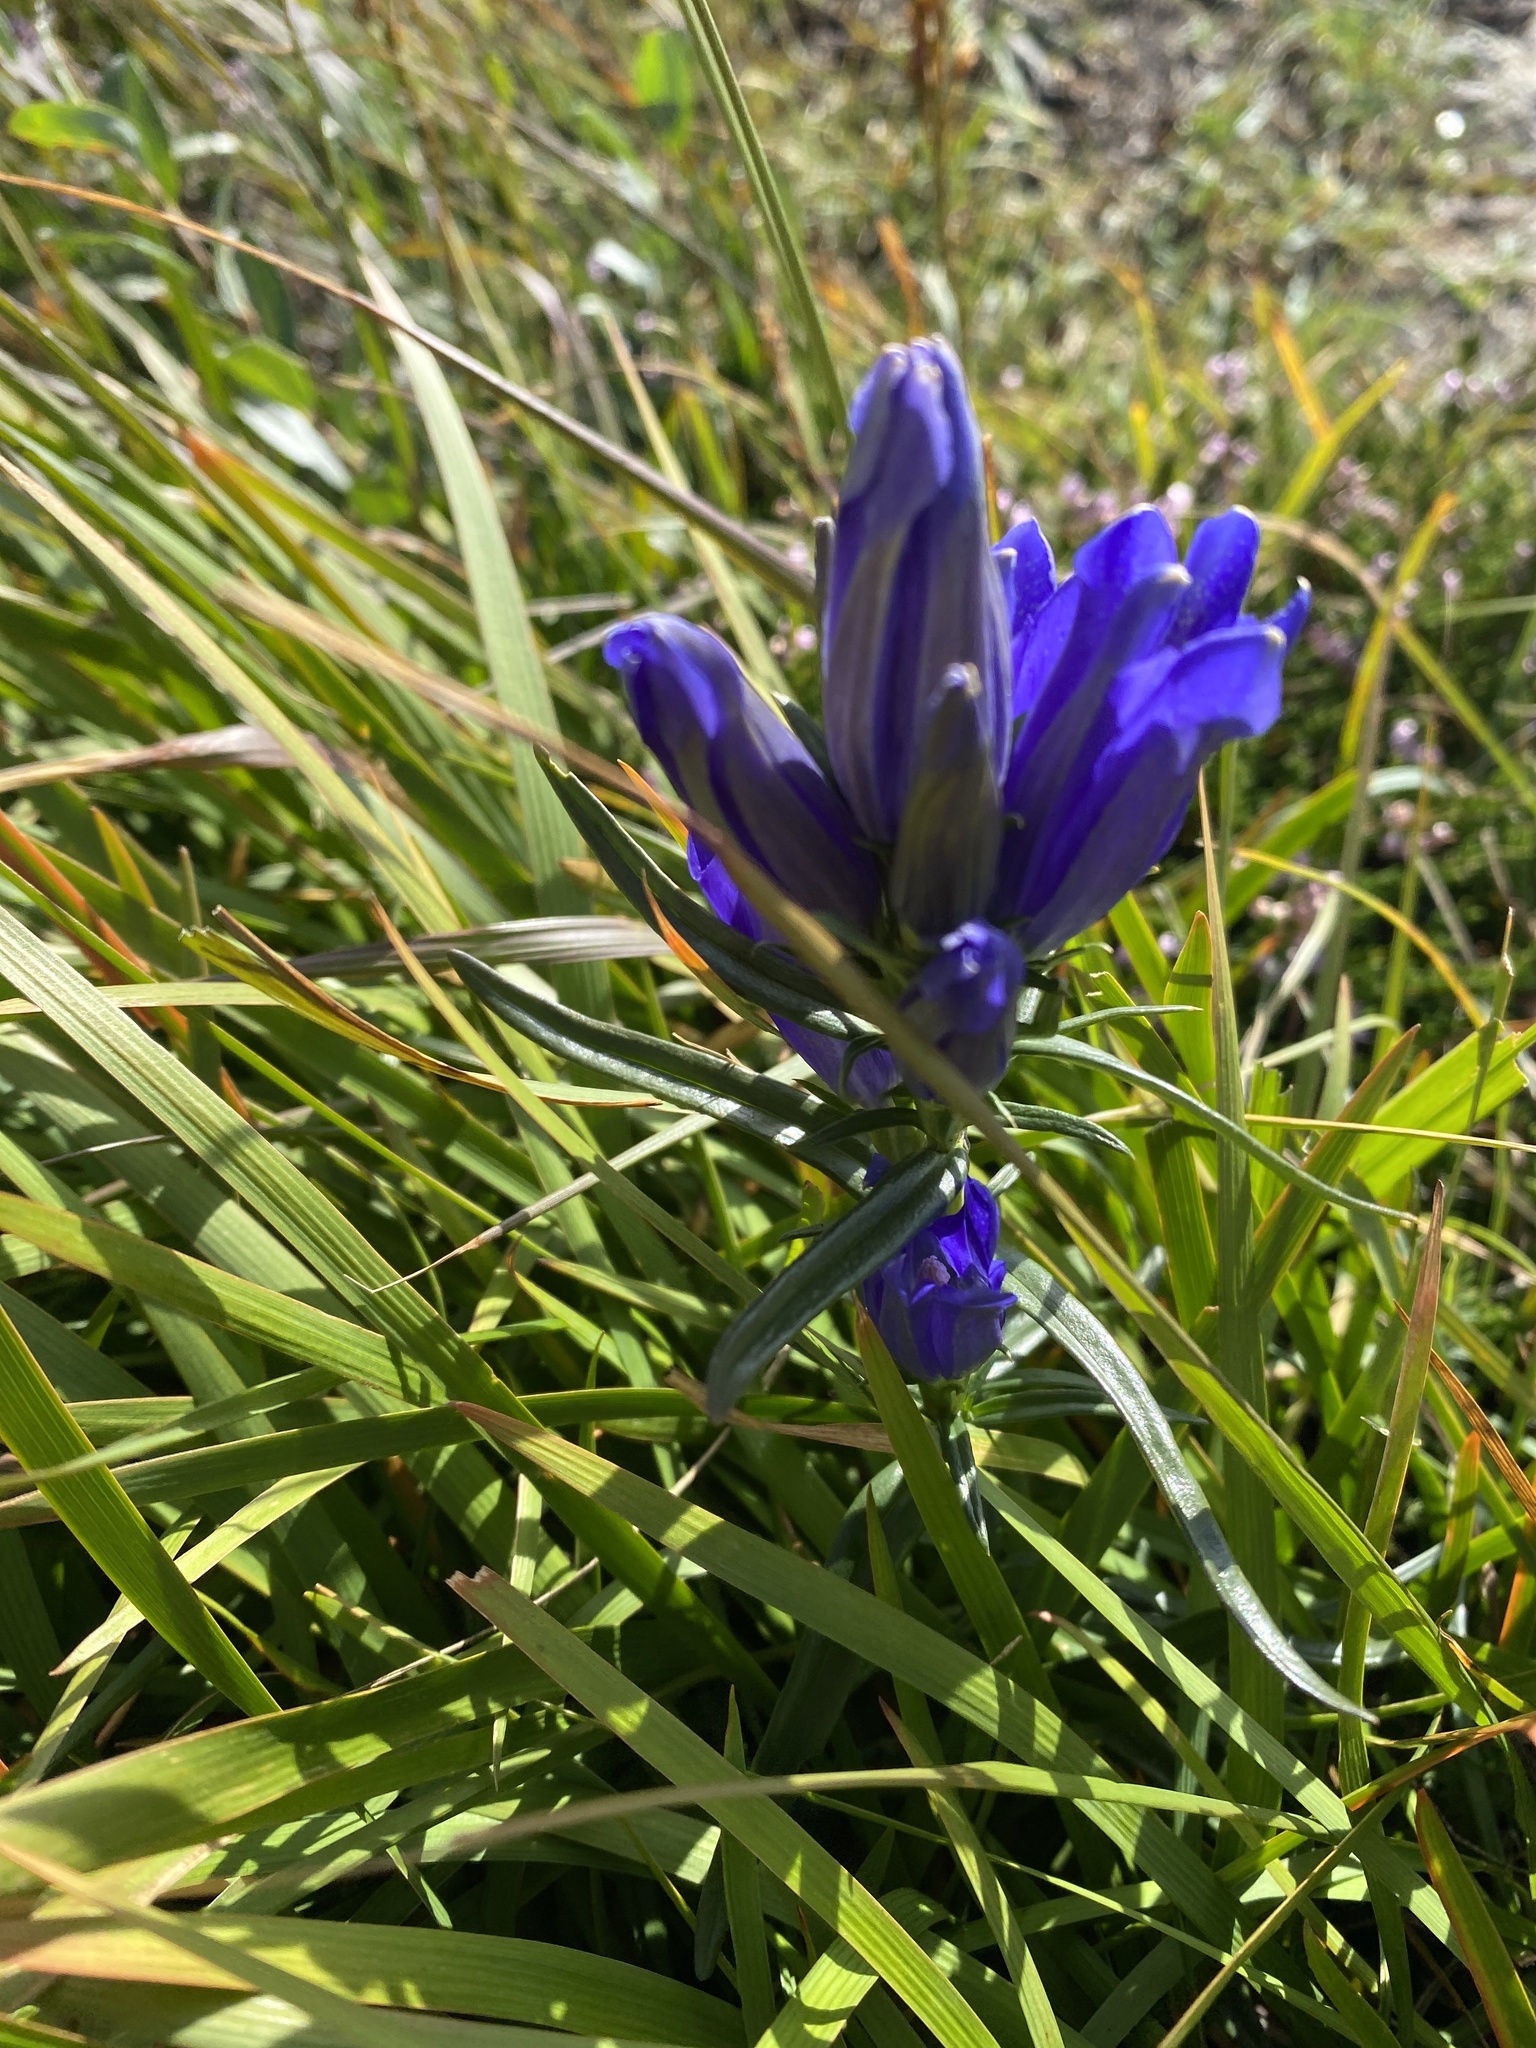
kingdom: Plantae
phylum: Tracheophyta
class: Magnoliopsida
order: Gentianales
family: Gentianaceae
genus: Gentiana
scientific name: Gentiana pneumonanthe
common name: Marsh gentian
